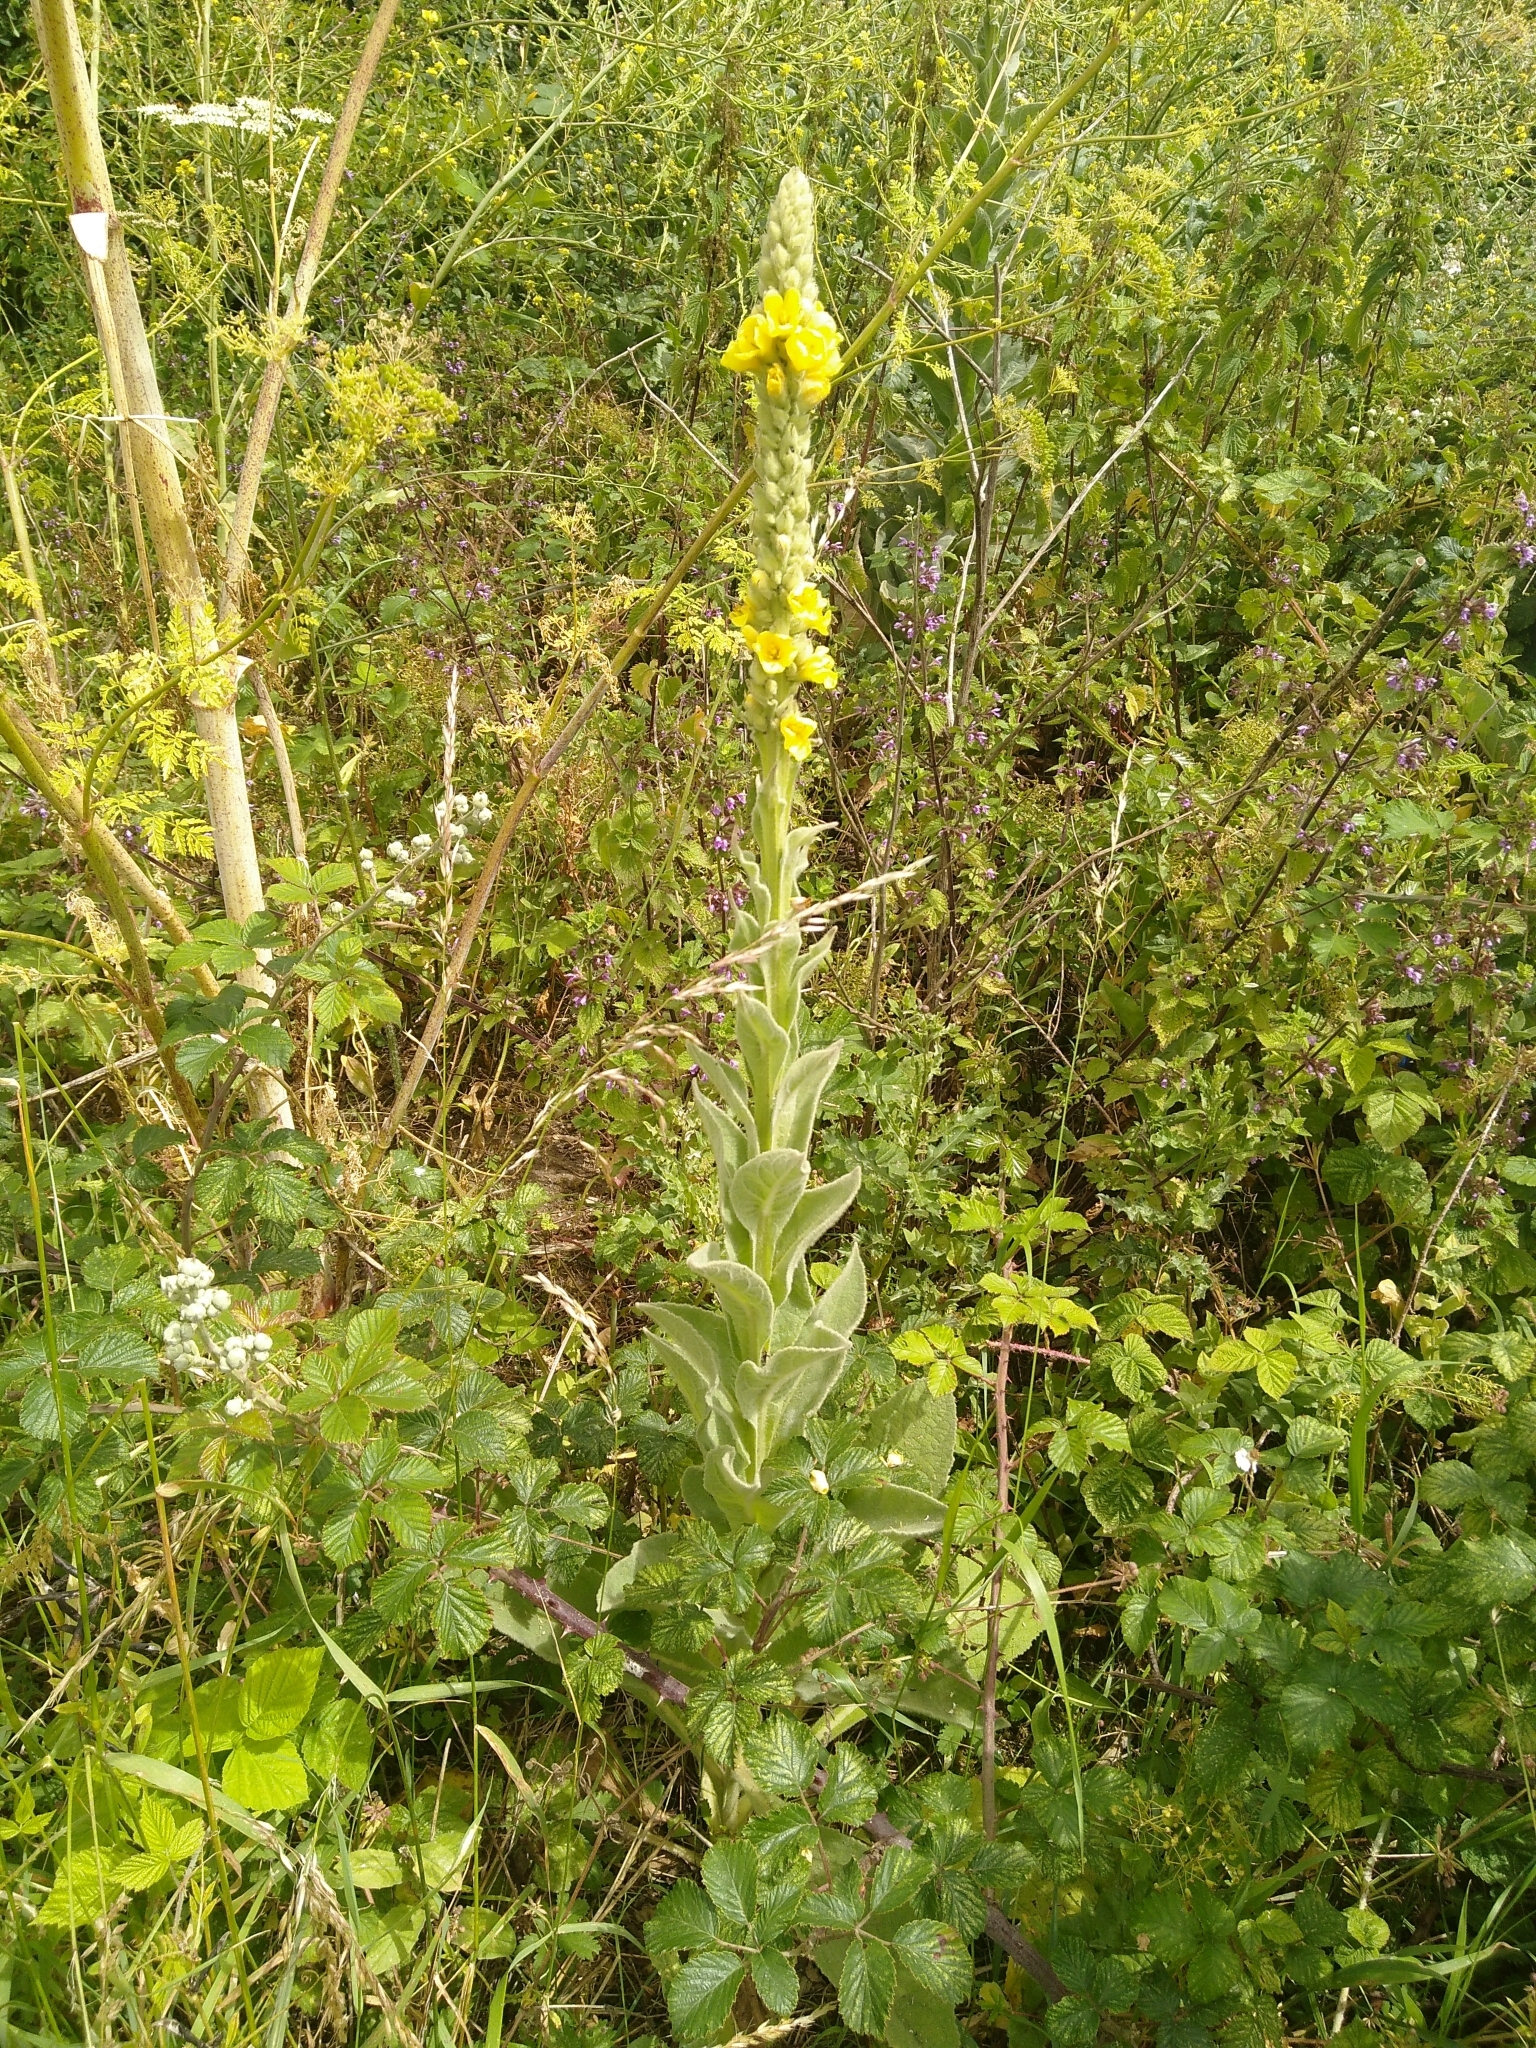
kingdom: Plantae
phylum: Tracheophyta
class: Magnoliopsida
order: Lamiales
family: Scrophulariaceae
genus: Verbascum
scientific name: Verbascum thapsus
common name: Common mullein
